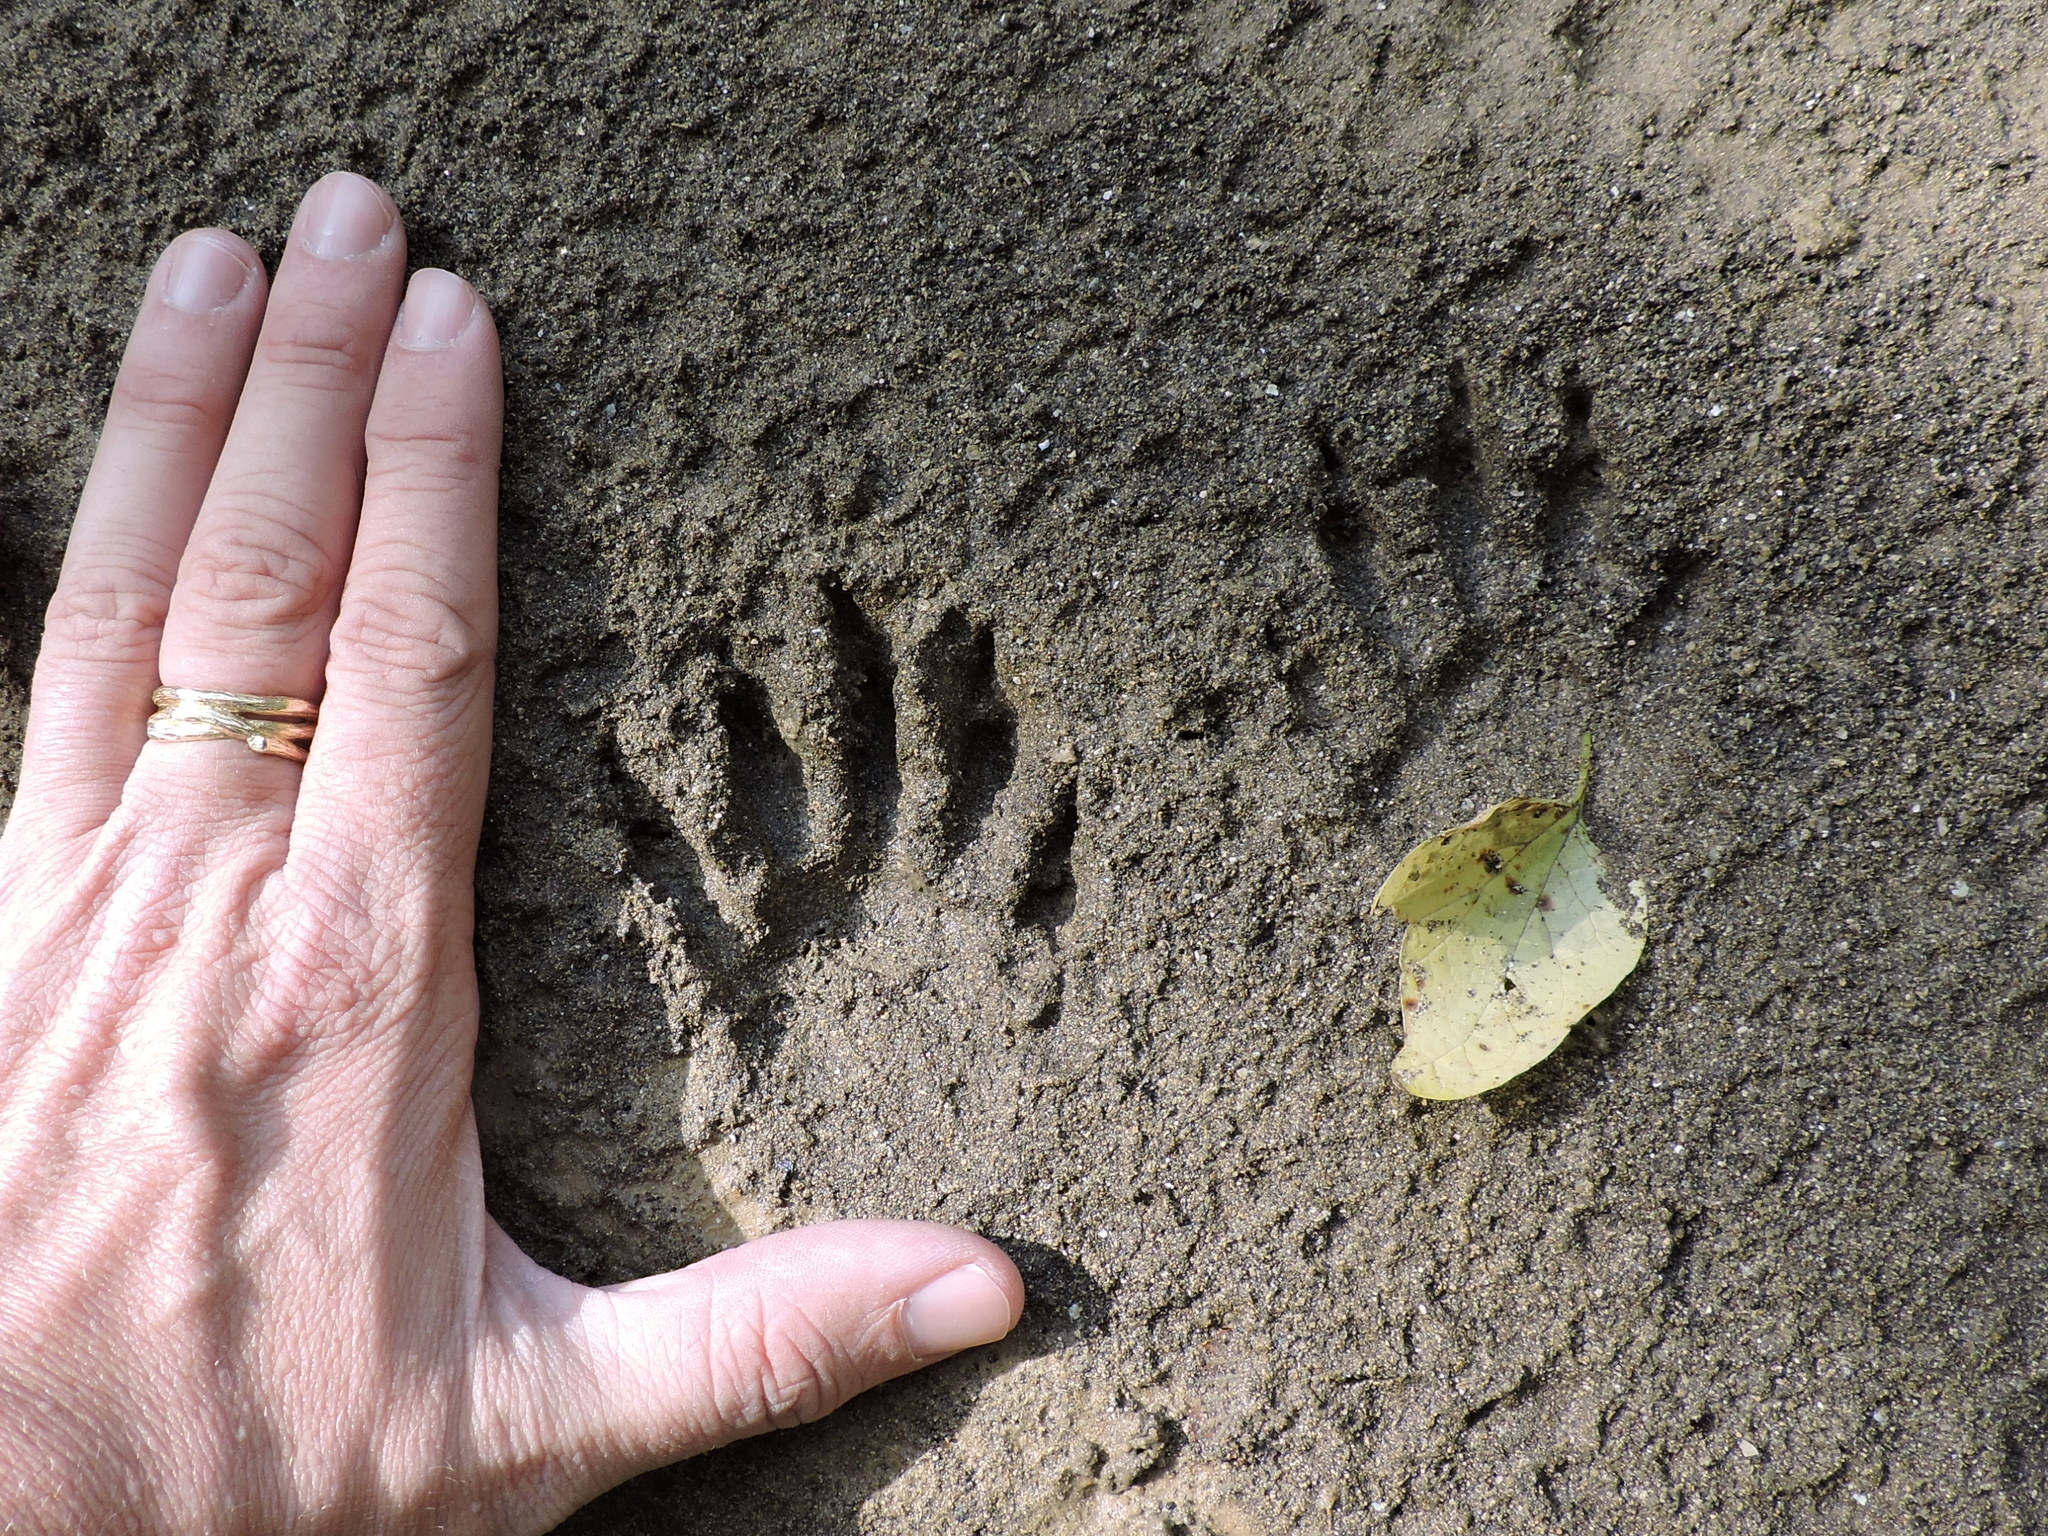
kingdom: Animalia
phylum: Chordata
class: Mammalia
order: Carnivora
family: Procyonidae
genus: Procyon
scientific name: Procyon lotor
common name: Raccoon
